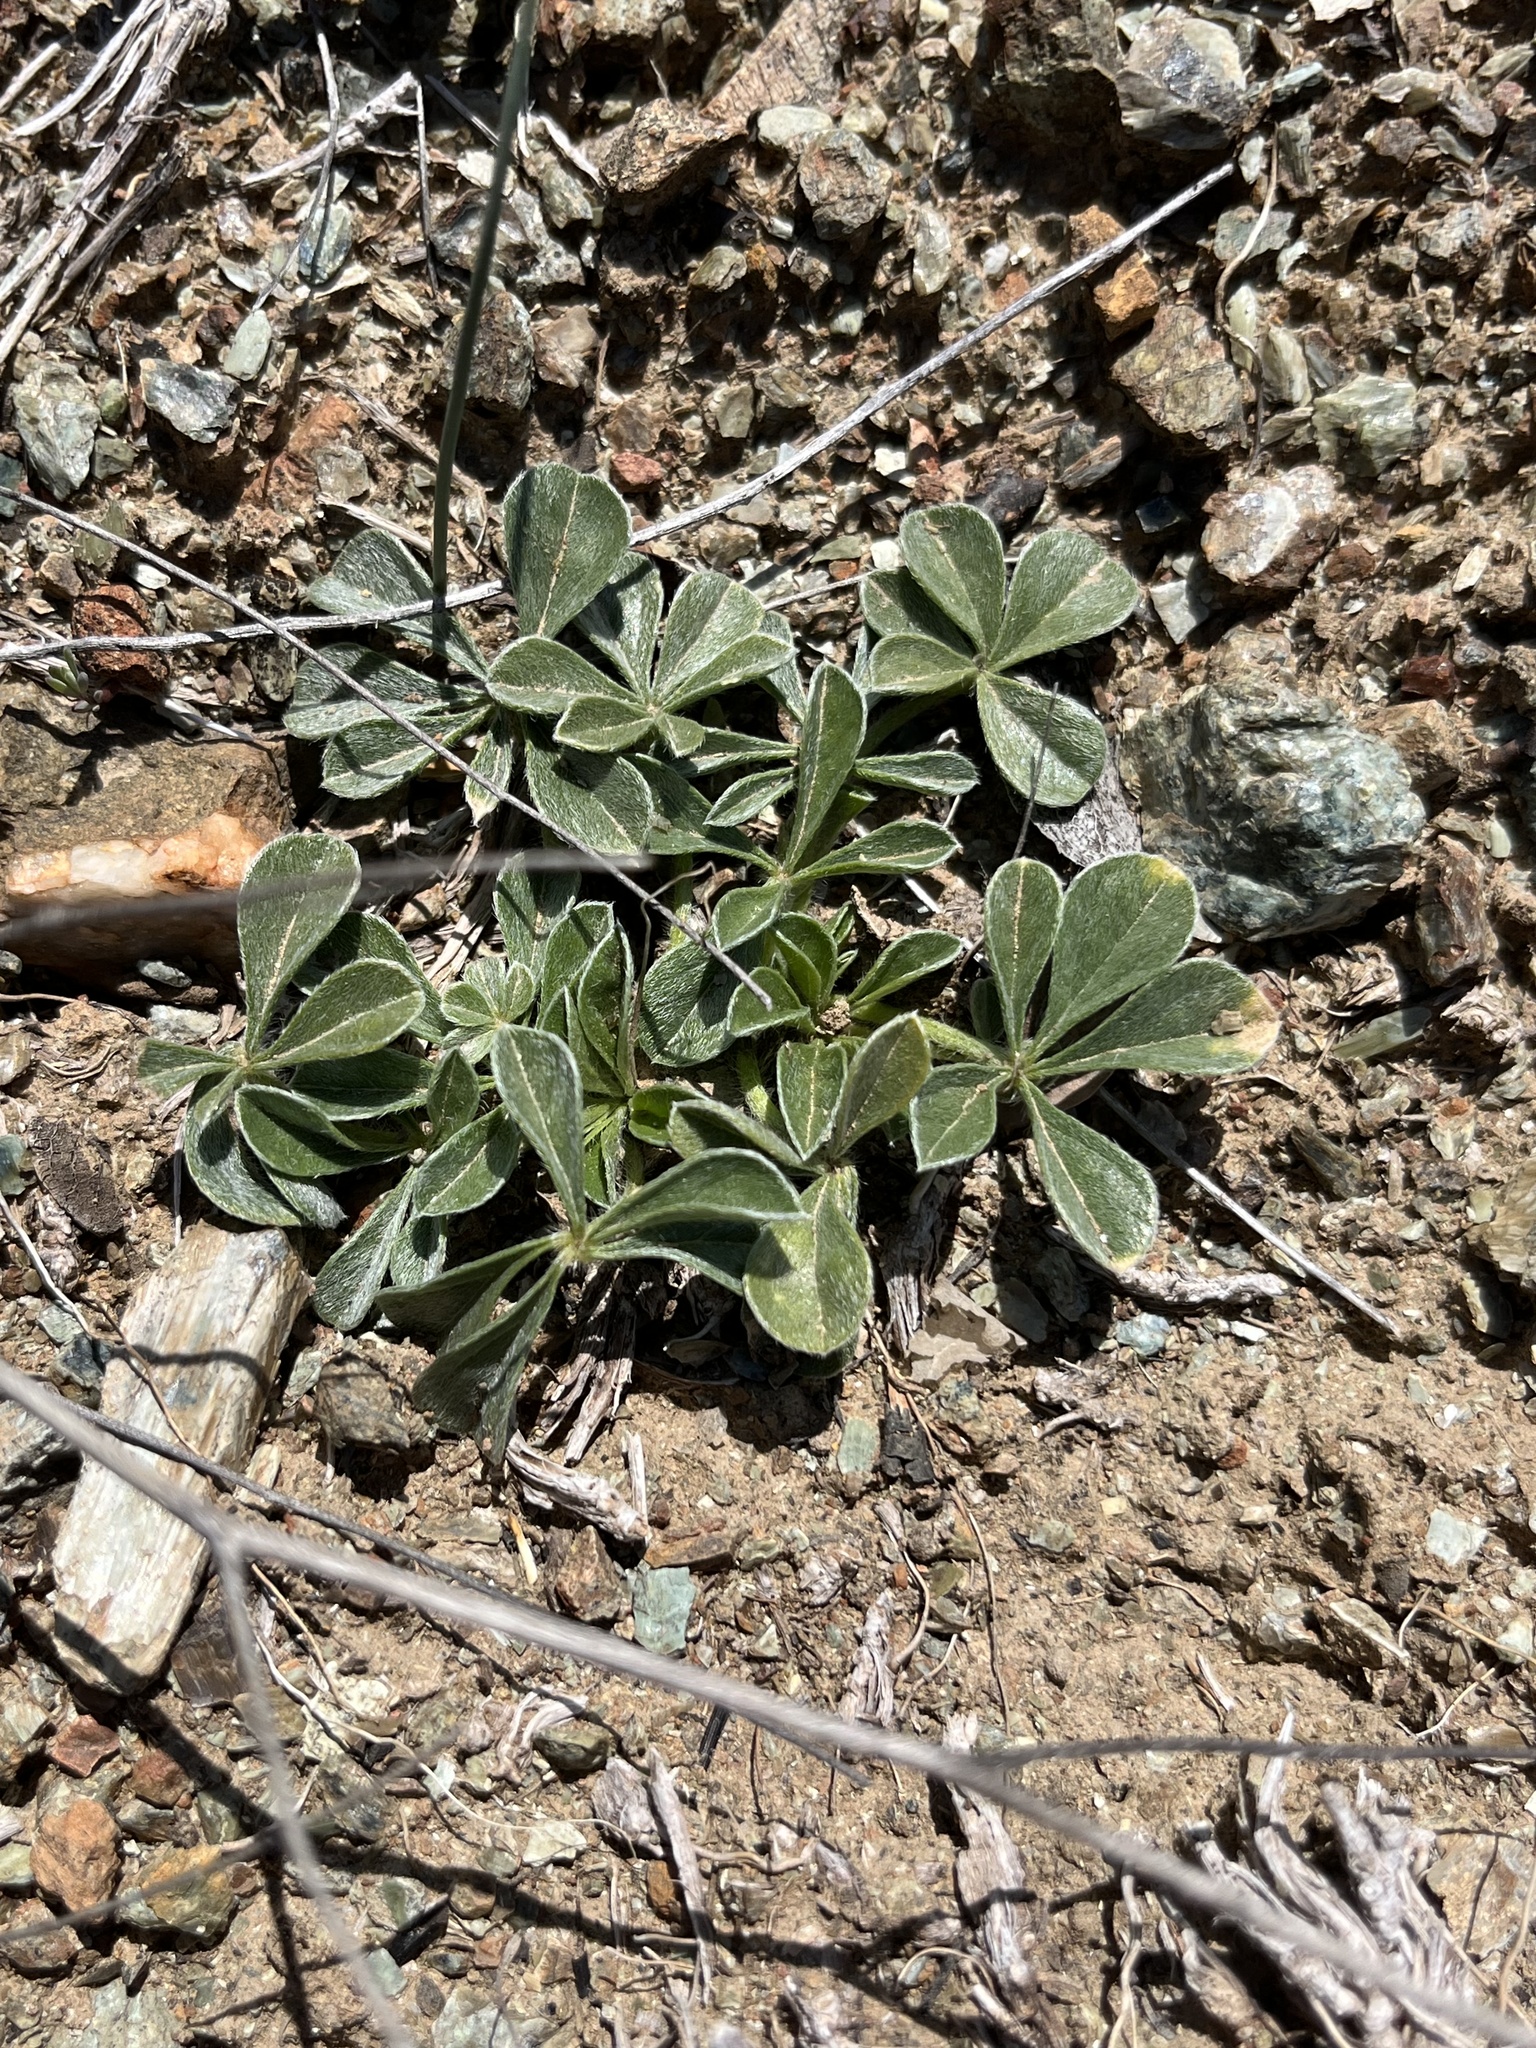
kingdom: Plantae
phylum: Tracheophyta
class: Magnoliopsida
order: Fabales
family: Fabaceae
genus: Pediomelum
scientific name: Pediomelum californicum
